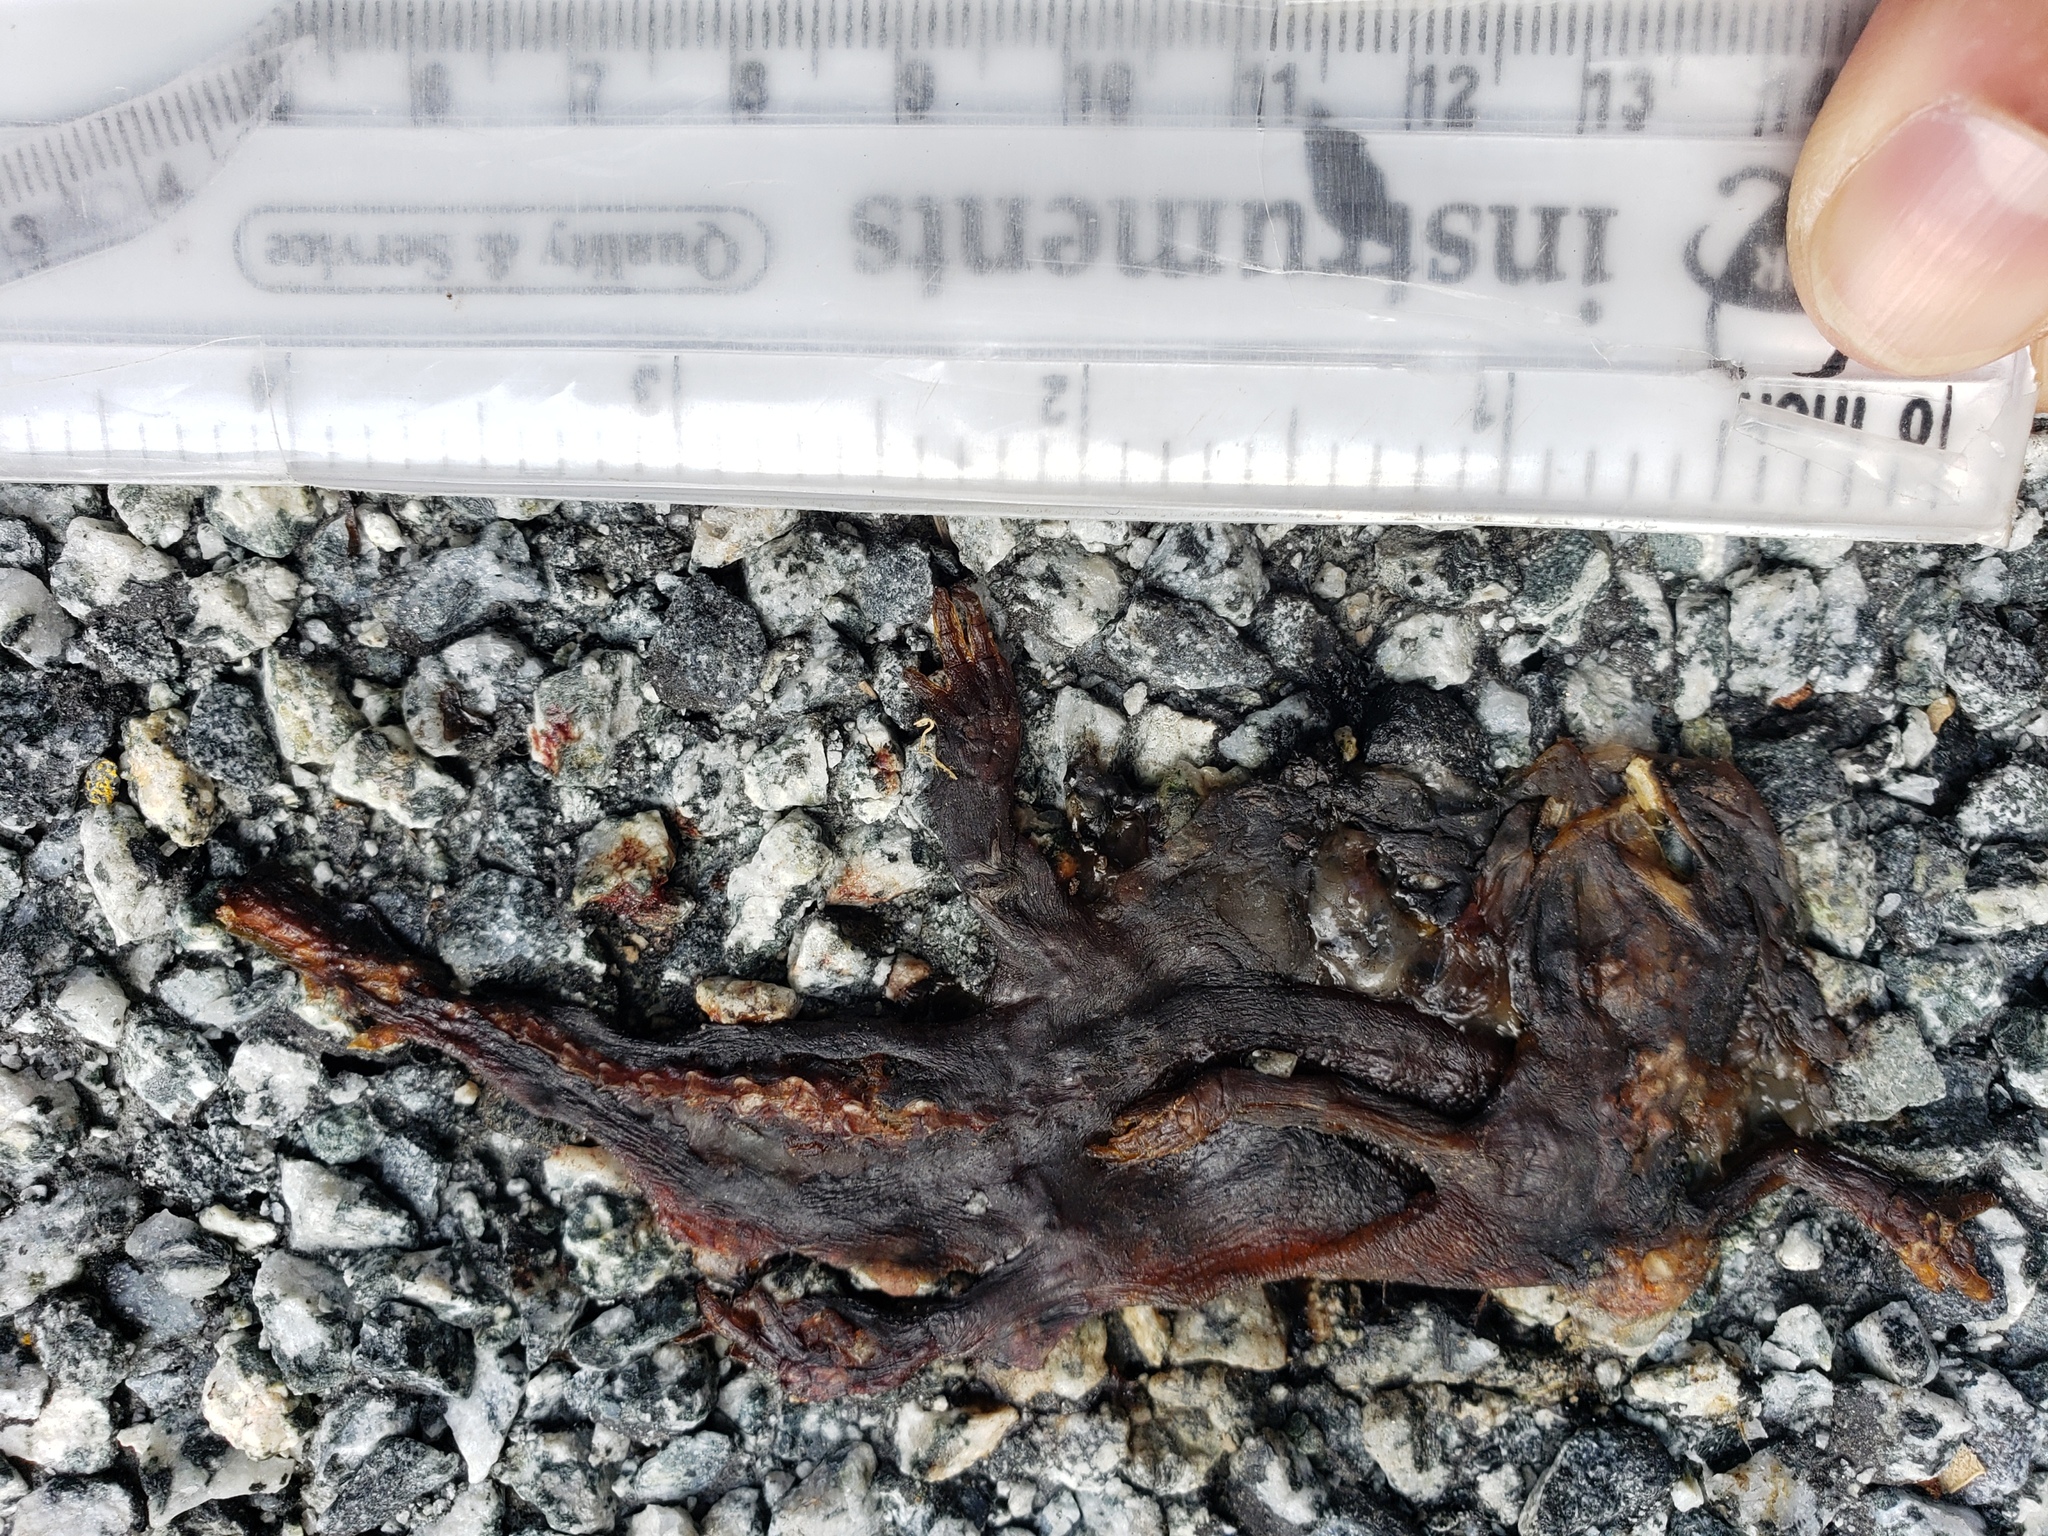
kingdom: Animalia
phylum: Chordata
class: Amphibia
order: Caudata
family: Salamandridae
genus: Taricha
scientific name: Taricha
